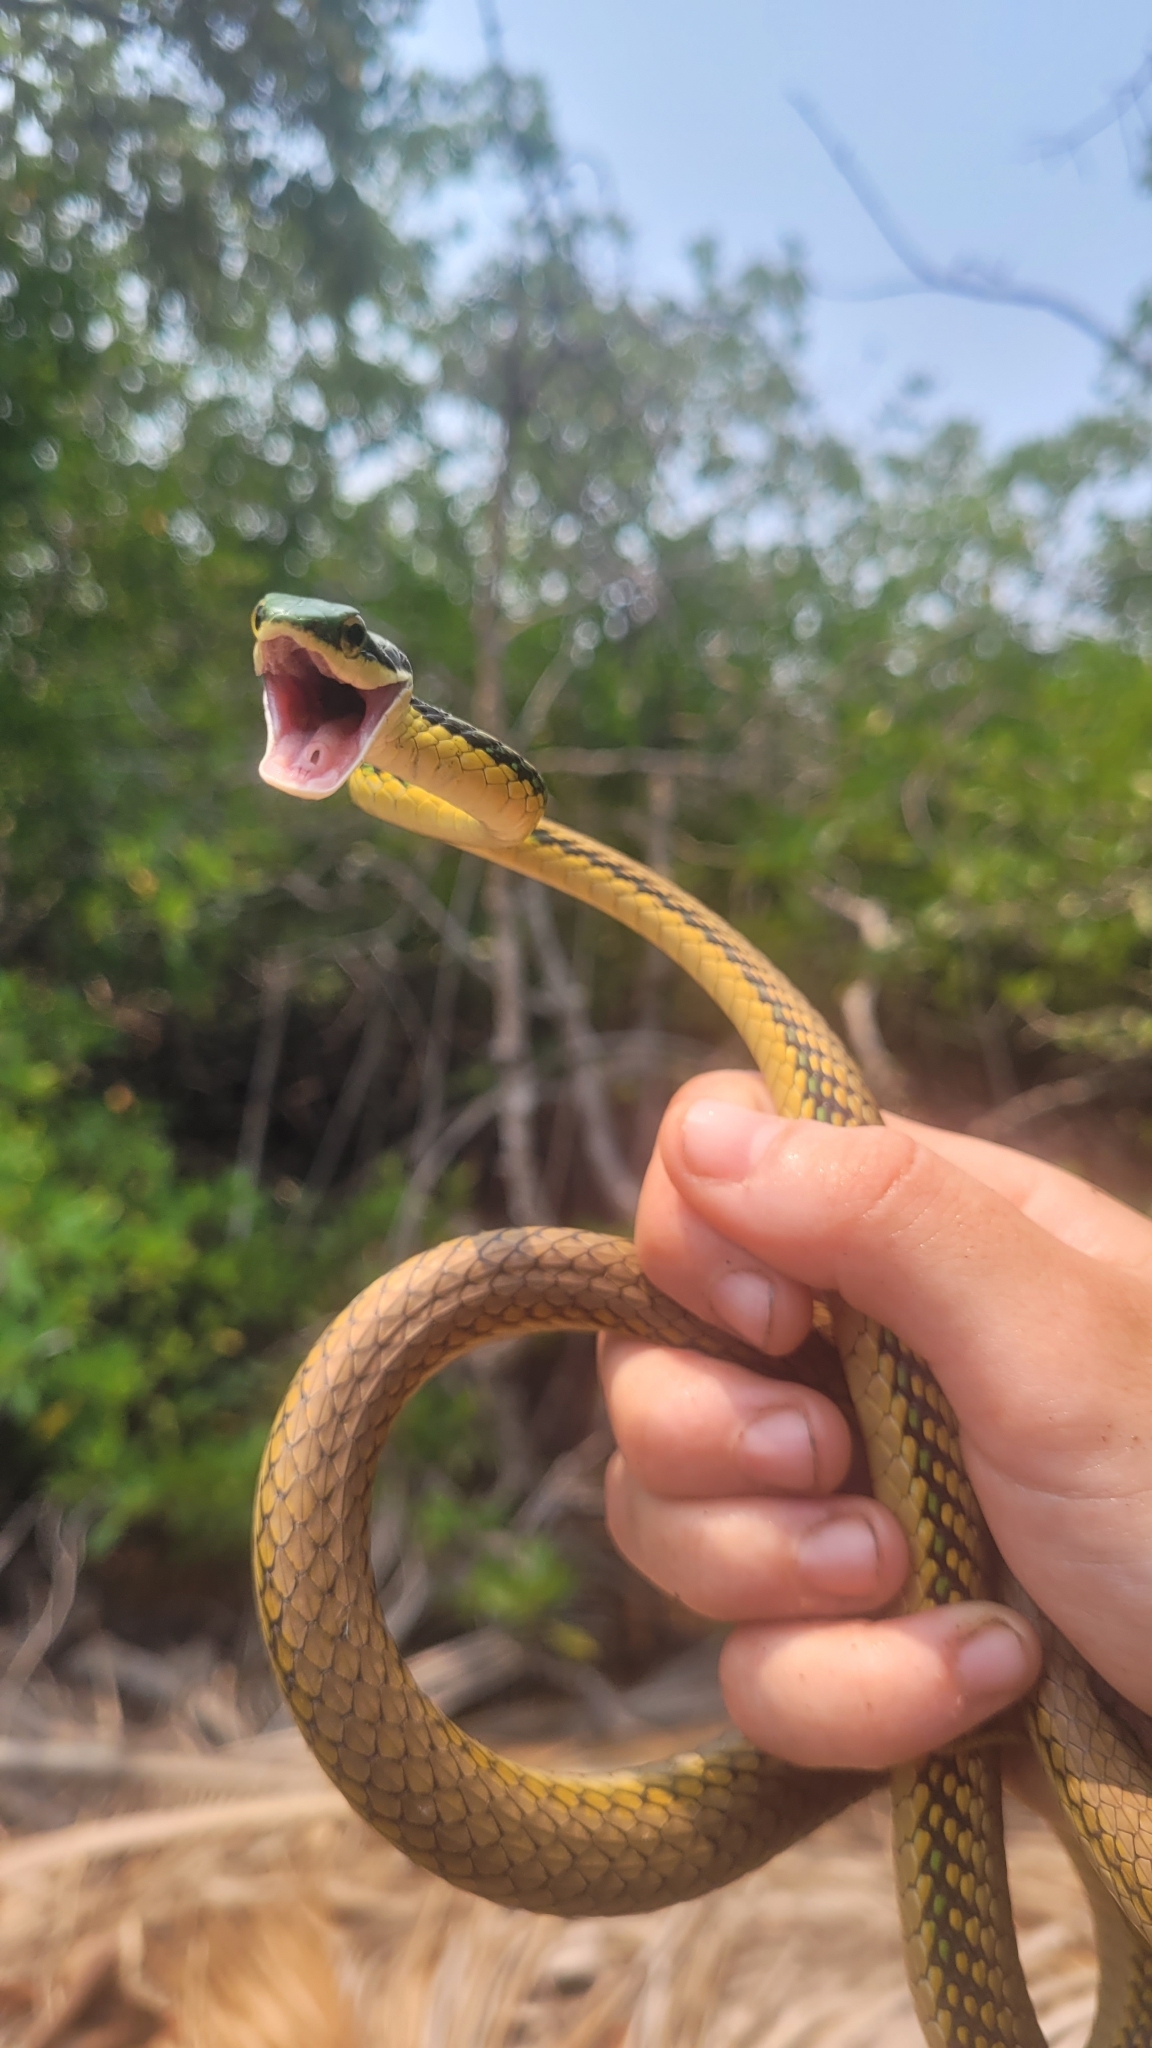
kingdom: Animalia
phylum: Chordata
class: Squamata
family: Colubridae
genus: Leptophis
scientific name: Leptophis mexicanus
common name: Mexican parrot snake
